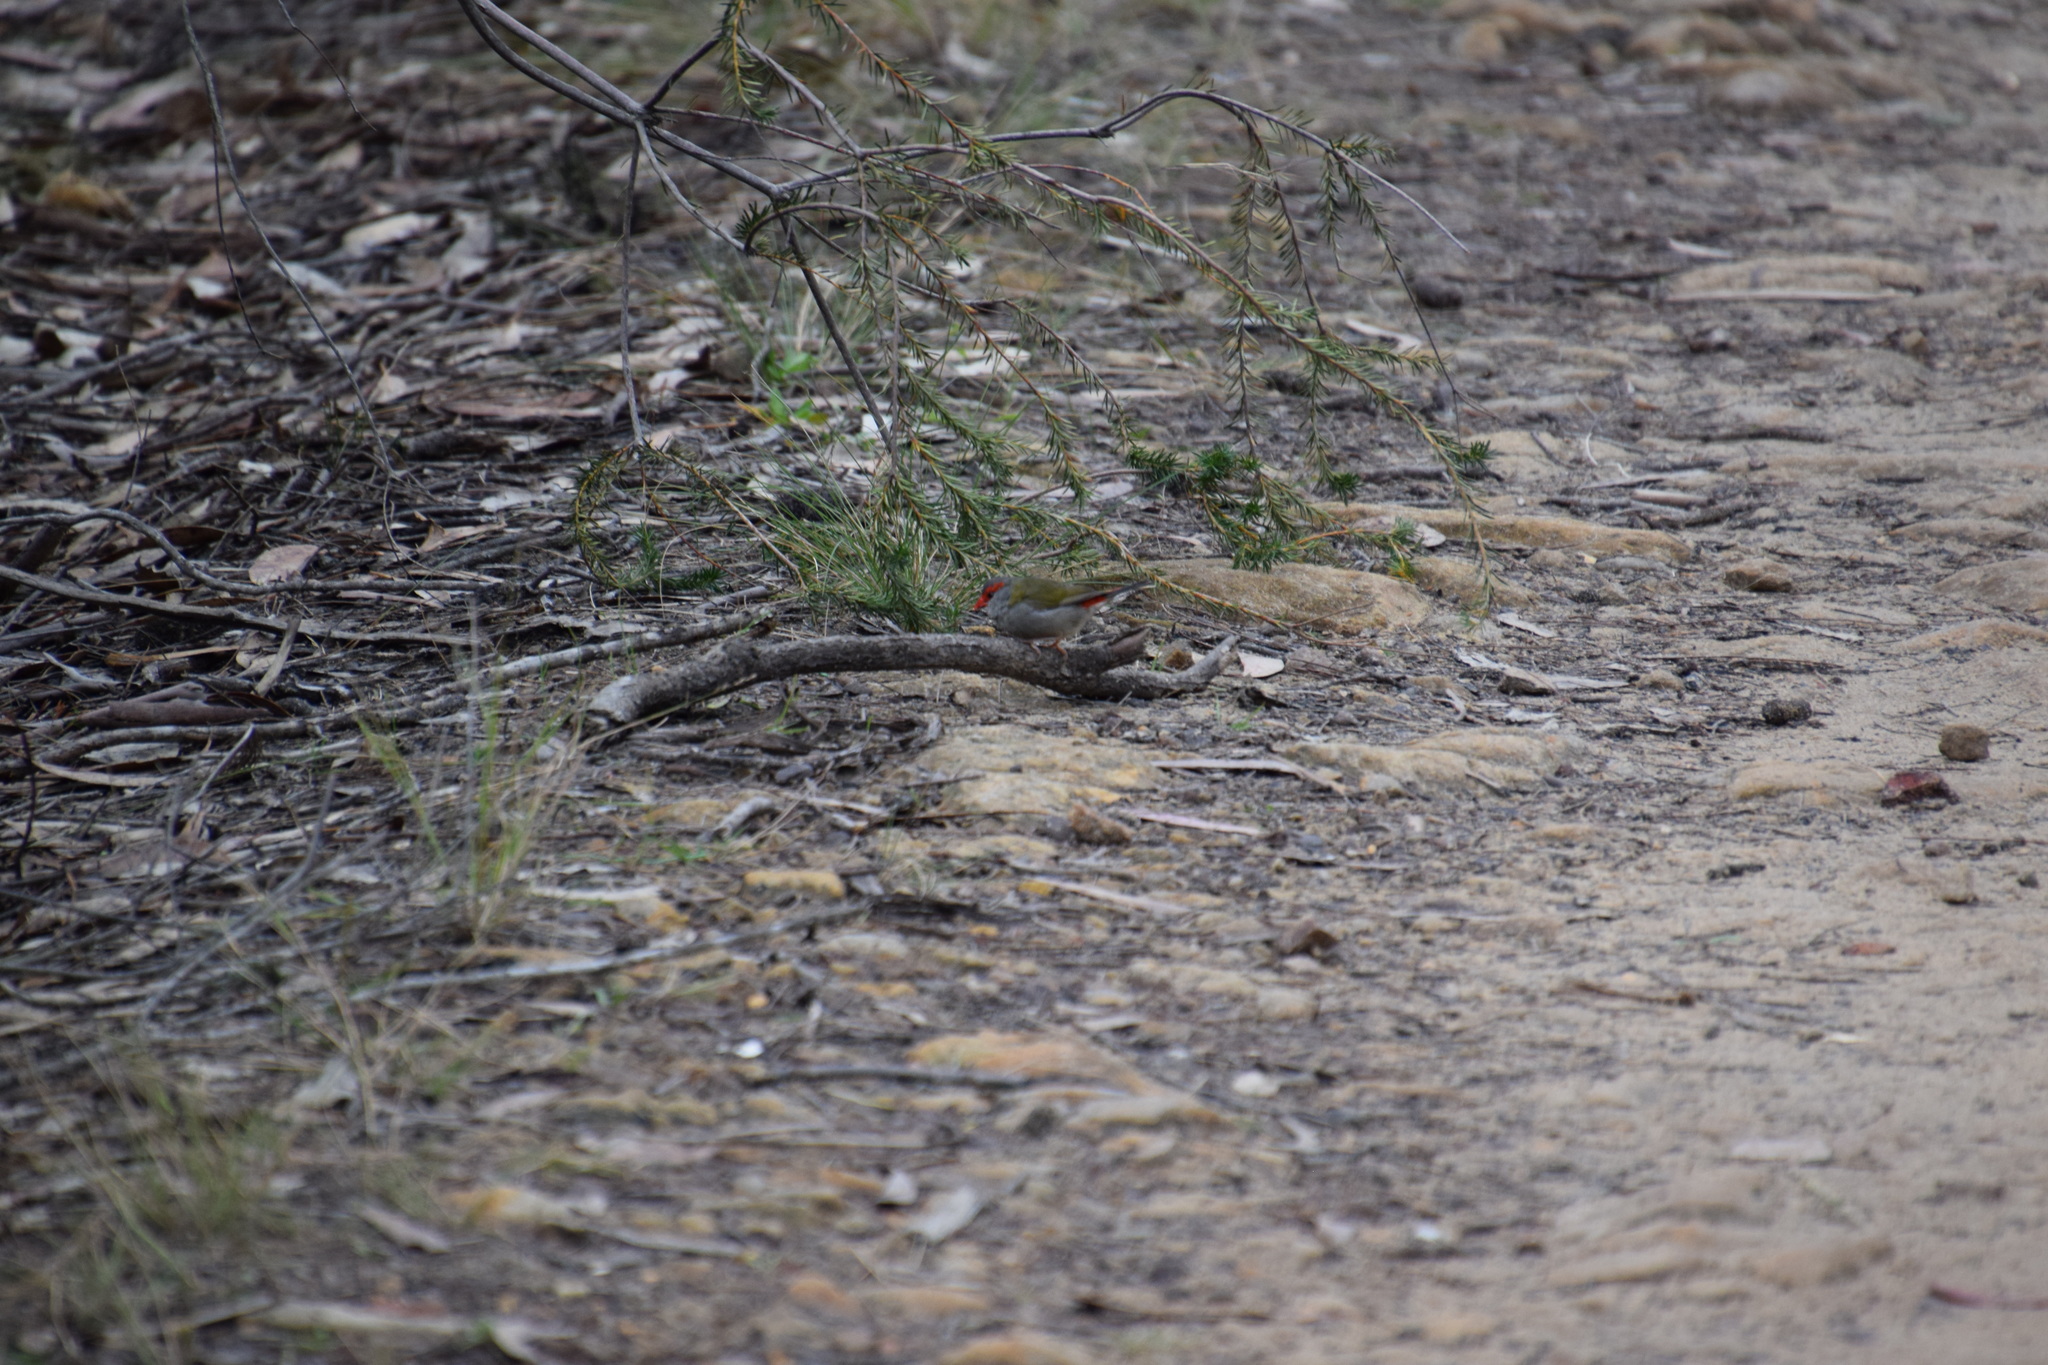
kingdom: Animalia
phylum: Chordata
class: Aves
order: Passeriformes
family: Estrildidae
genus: Neochmia
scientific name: Neochmia temporalis
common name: Red-browed finch
